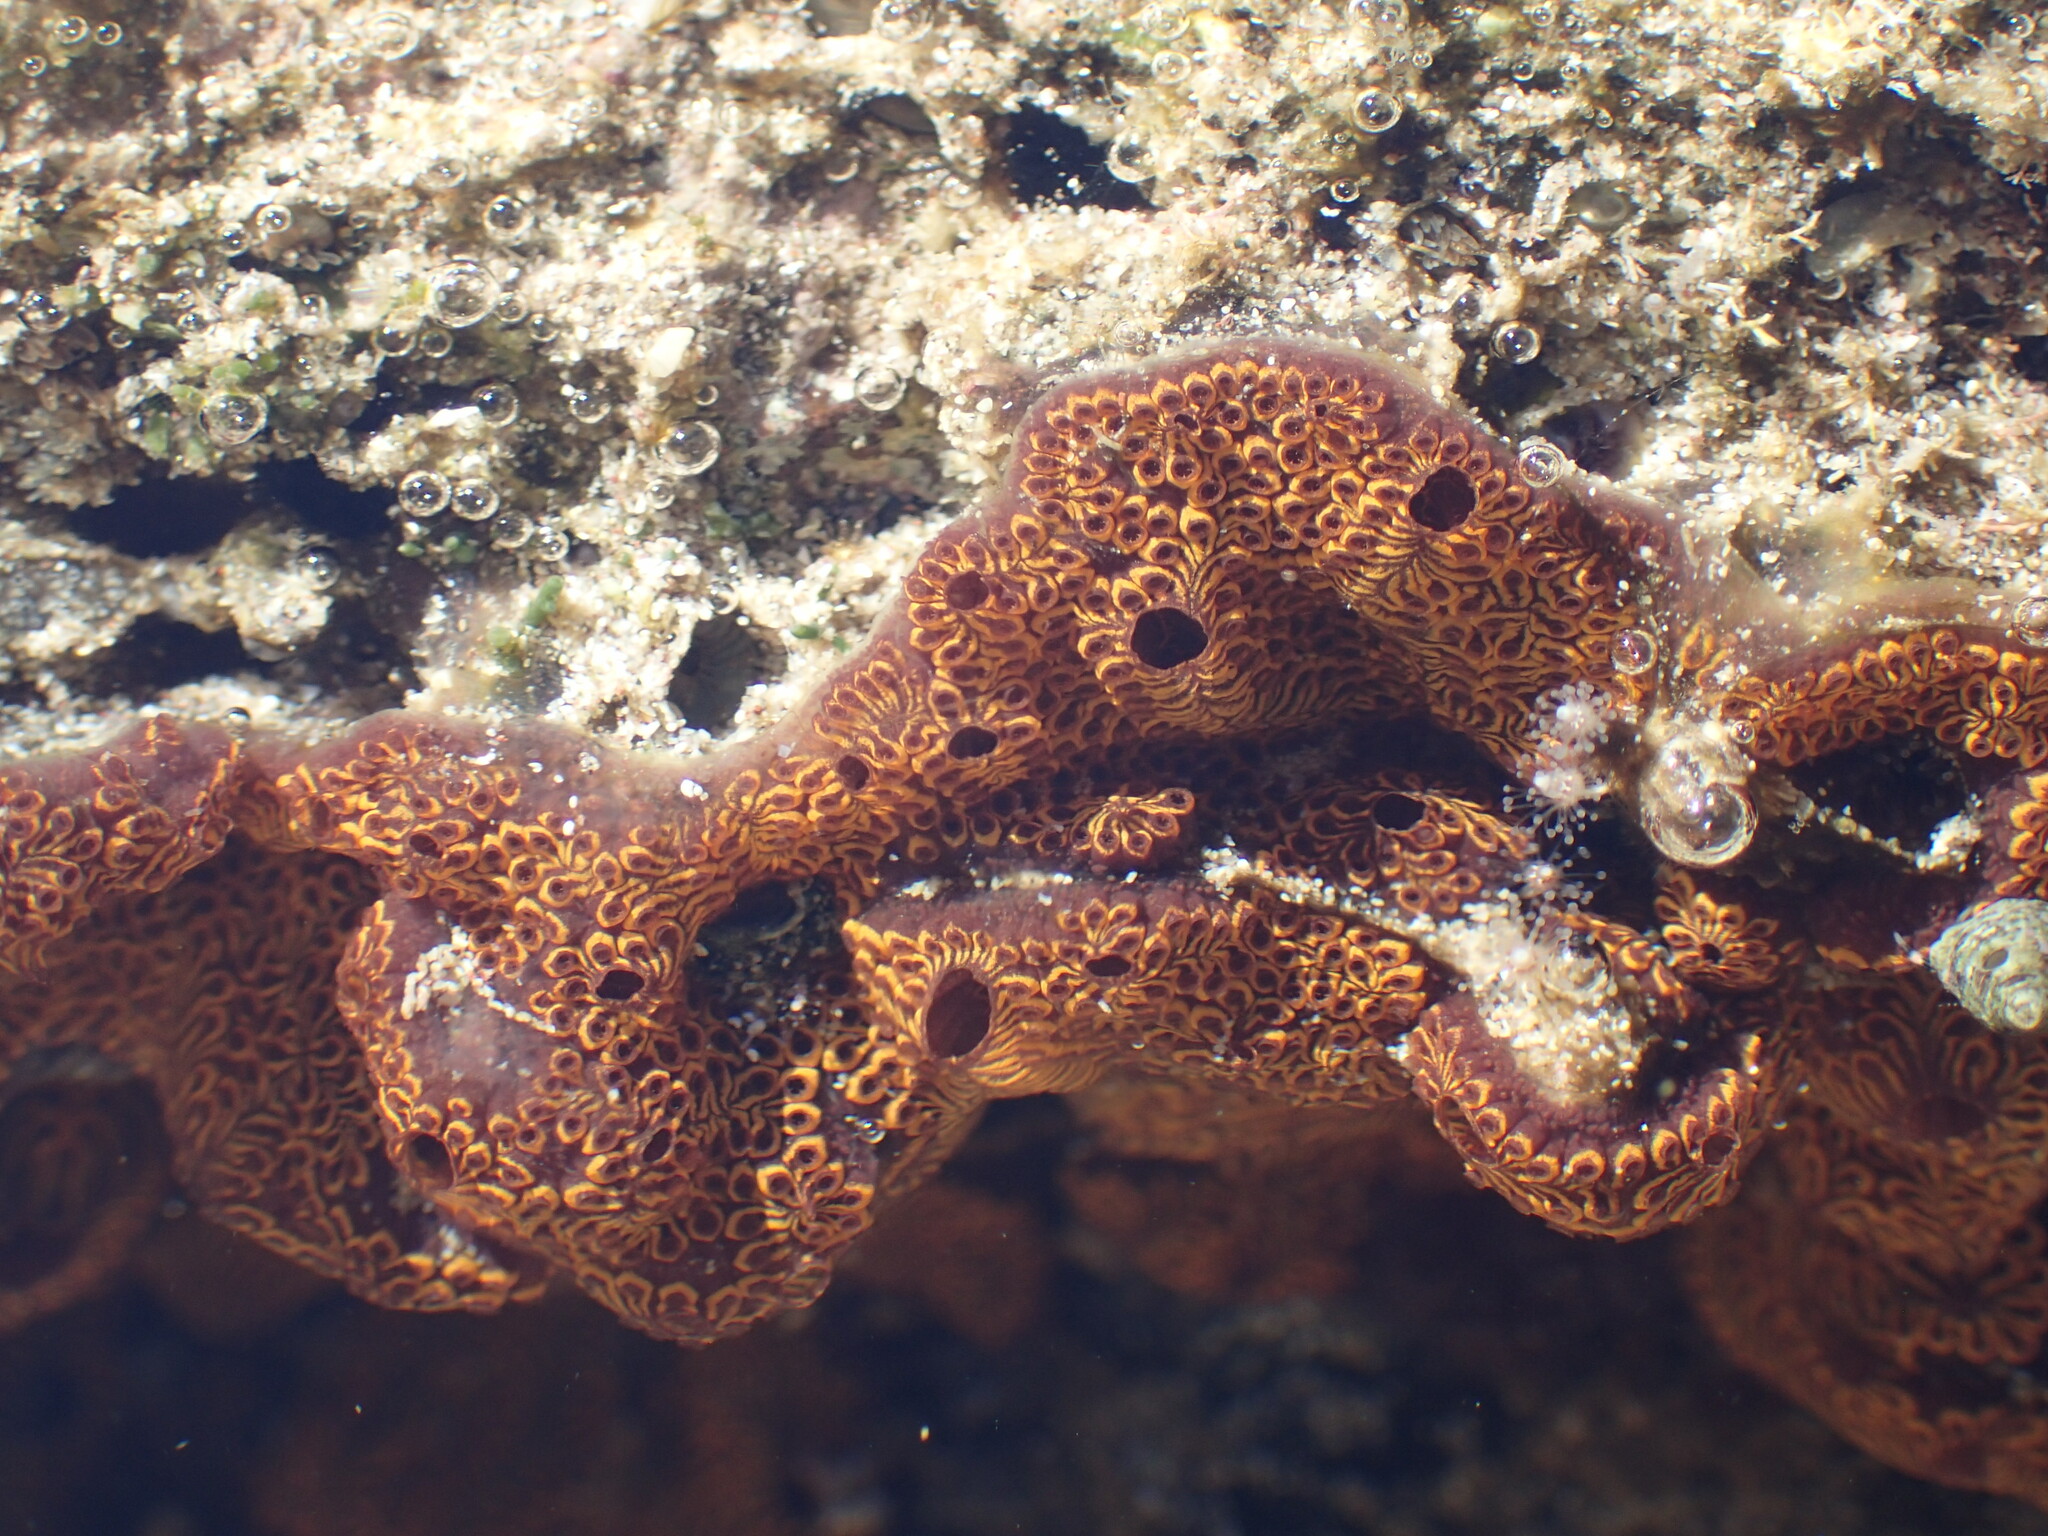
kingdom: Animalia
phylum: Chordata
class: Ascidiacea
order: Stolidobranchia
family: Styelidae
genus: Botrylloides
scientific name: Botrylloides niger
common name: Black synascidia
